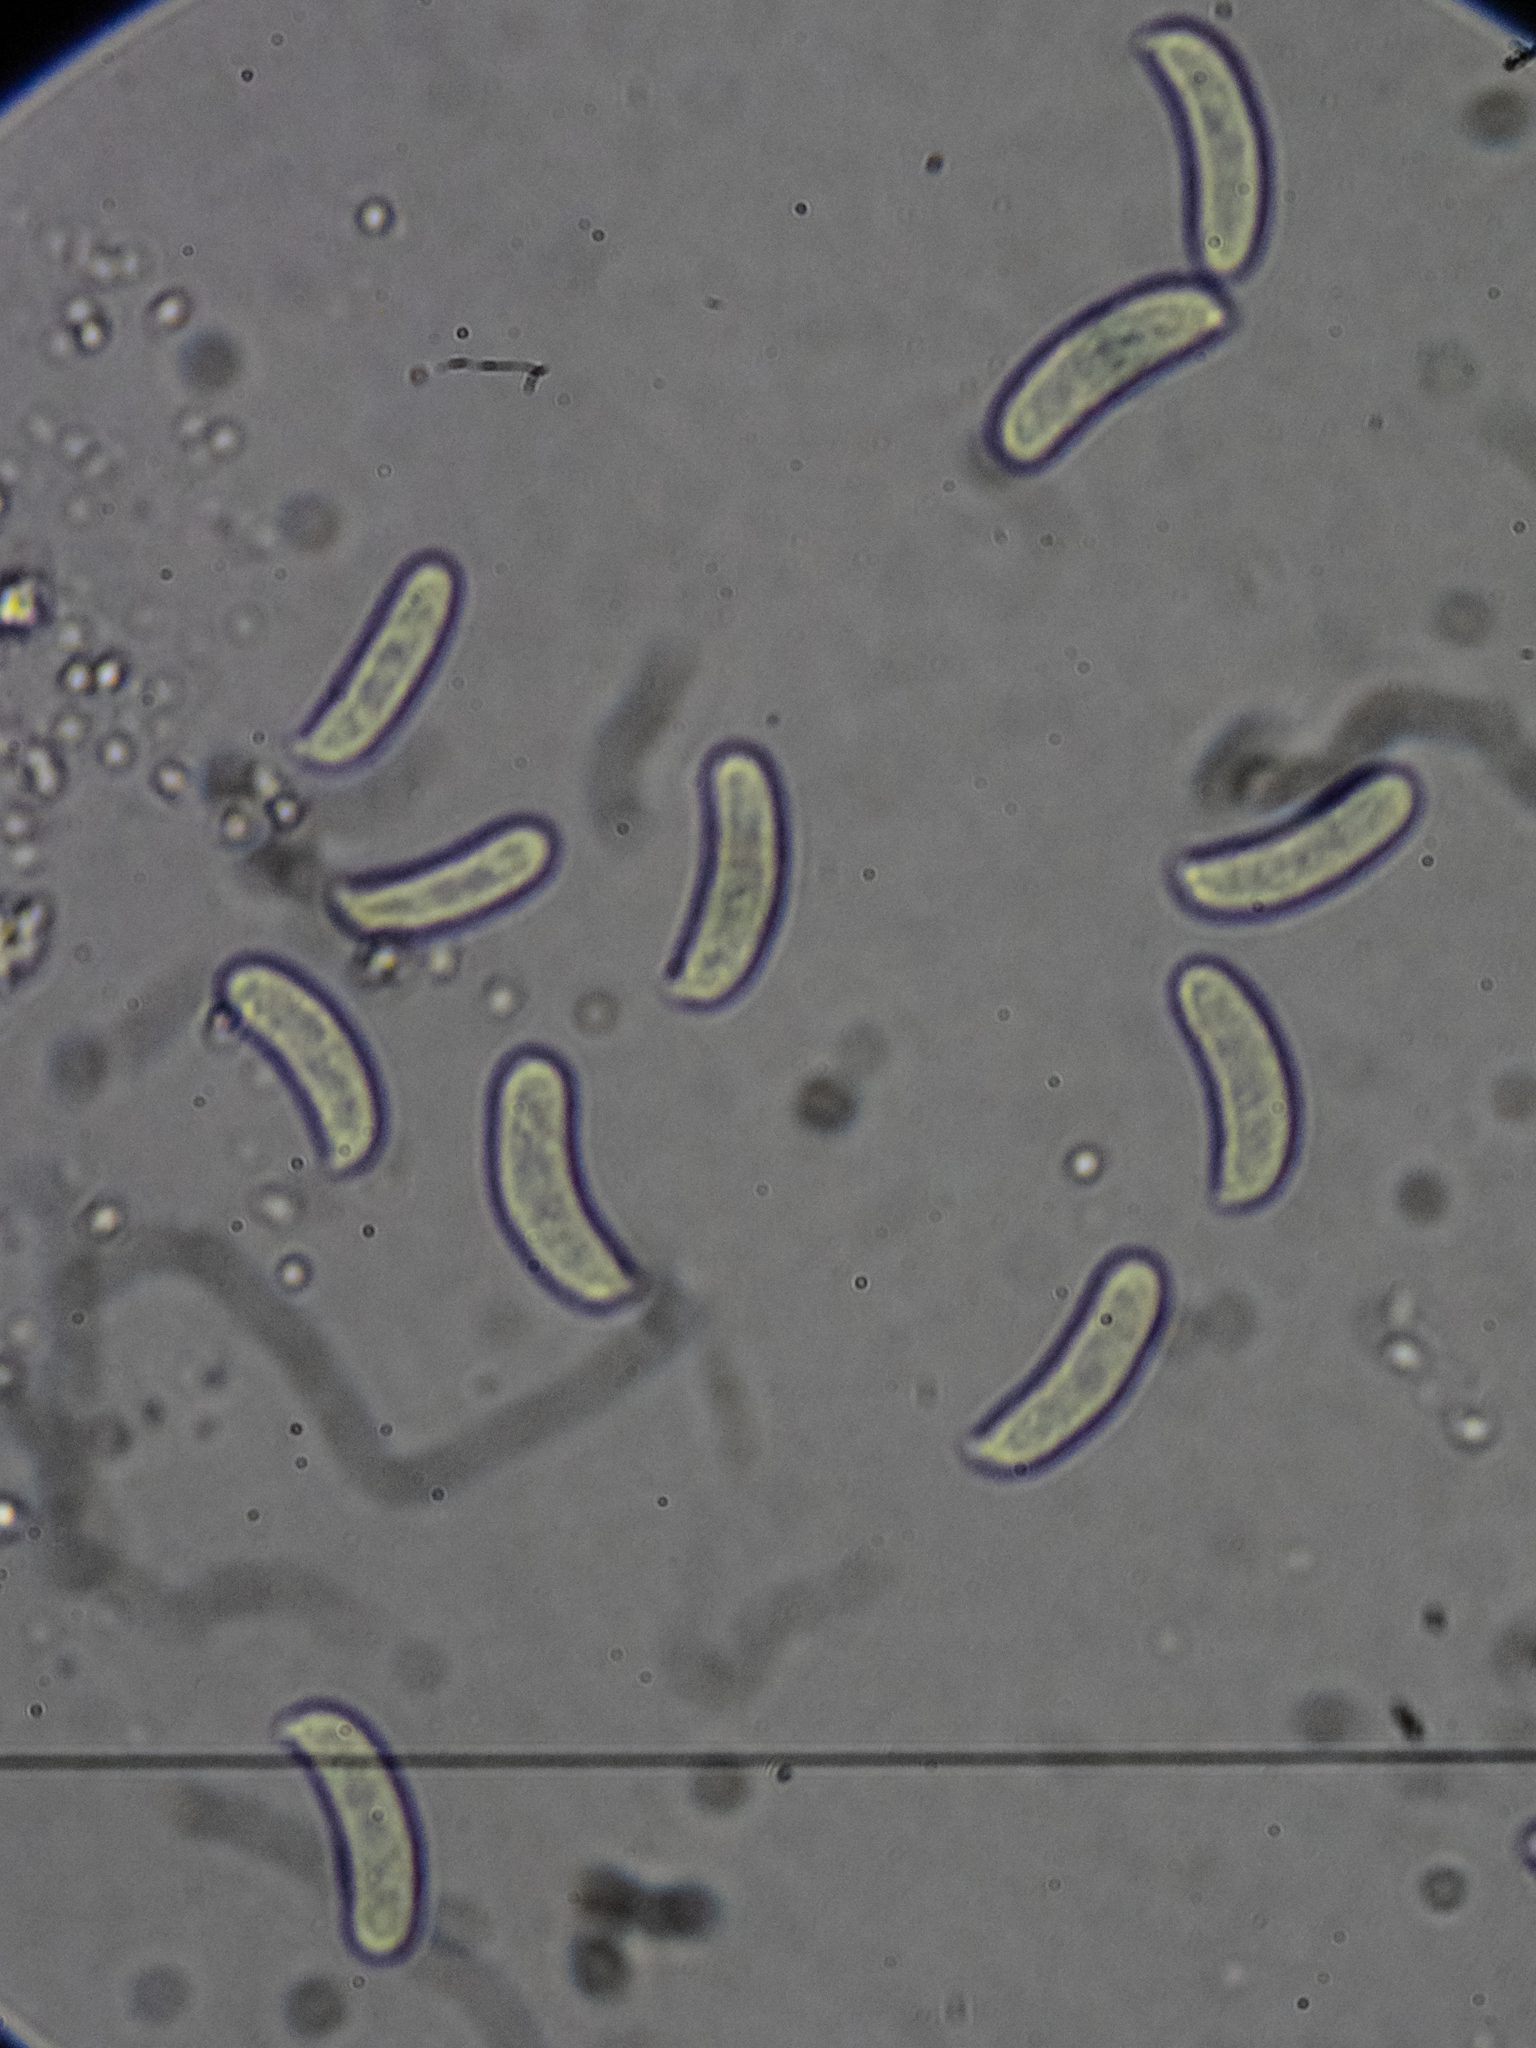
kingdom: Fungi
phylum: Basidiomycota
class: Agaricomycetes
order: Corticiales
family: Vuilleminiaceae
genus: Vuilleminia
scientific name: Vuilleminia comedens
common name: Waxy crust
